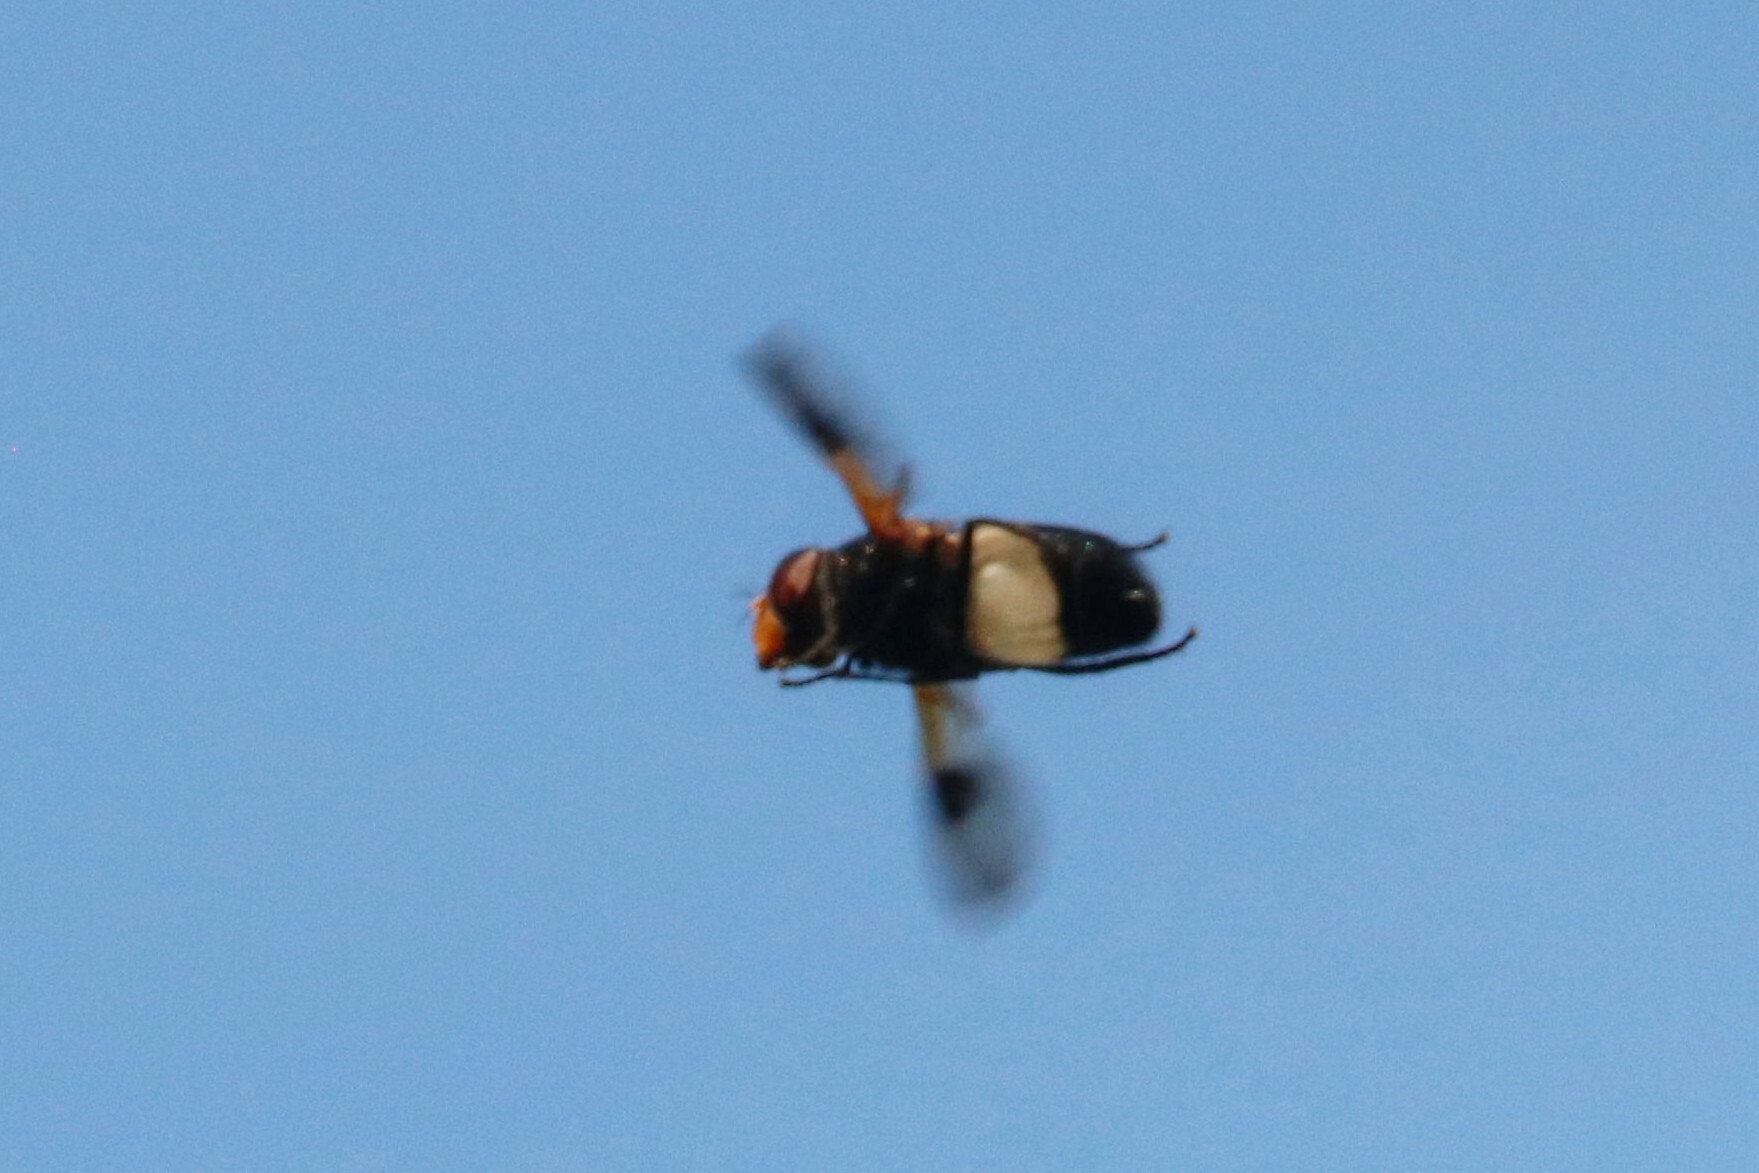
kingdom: Animalia
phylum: Arthropoda
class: Insecta
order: Diptera
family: Syrphidae
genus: Volucella
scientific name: Volucella pellucens
